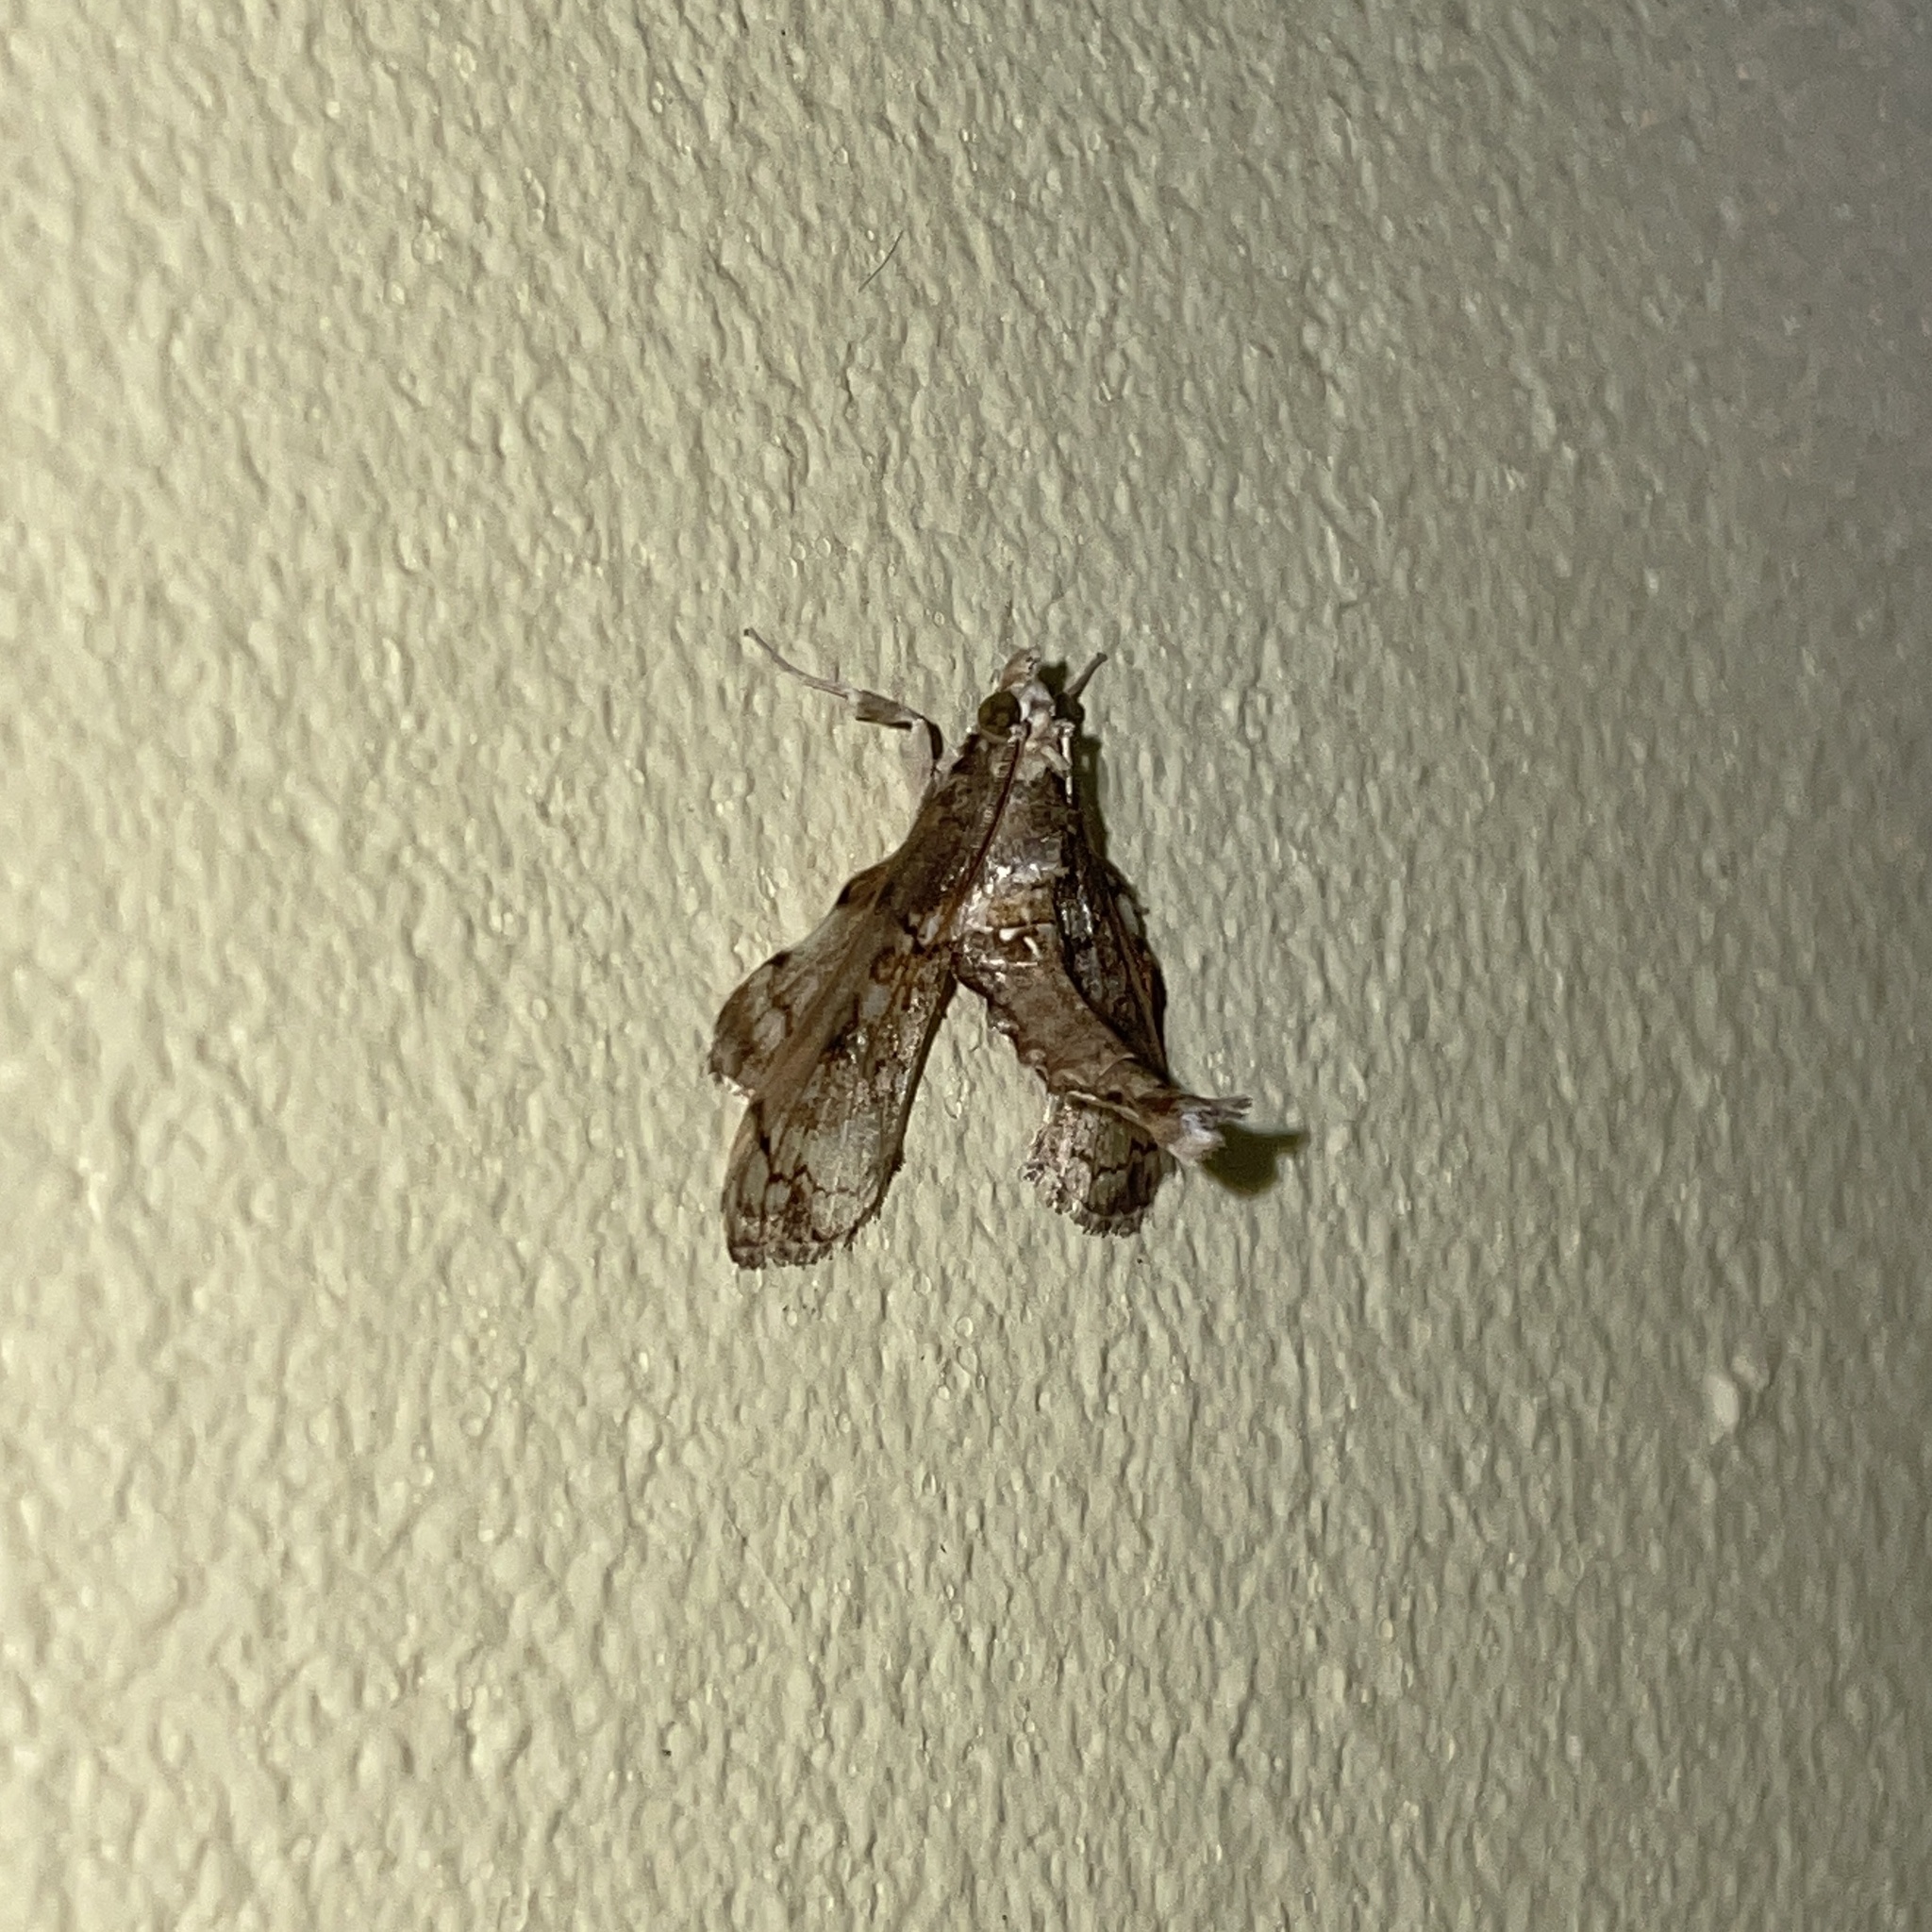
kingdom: Animalia
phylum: Arthropoda
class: Insecta
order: Lepidoptera
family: Crambidae
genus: Megastes
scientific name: Megastes pusialis
